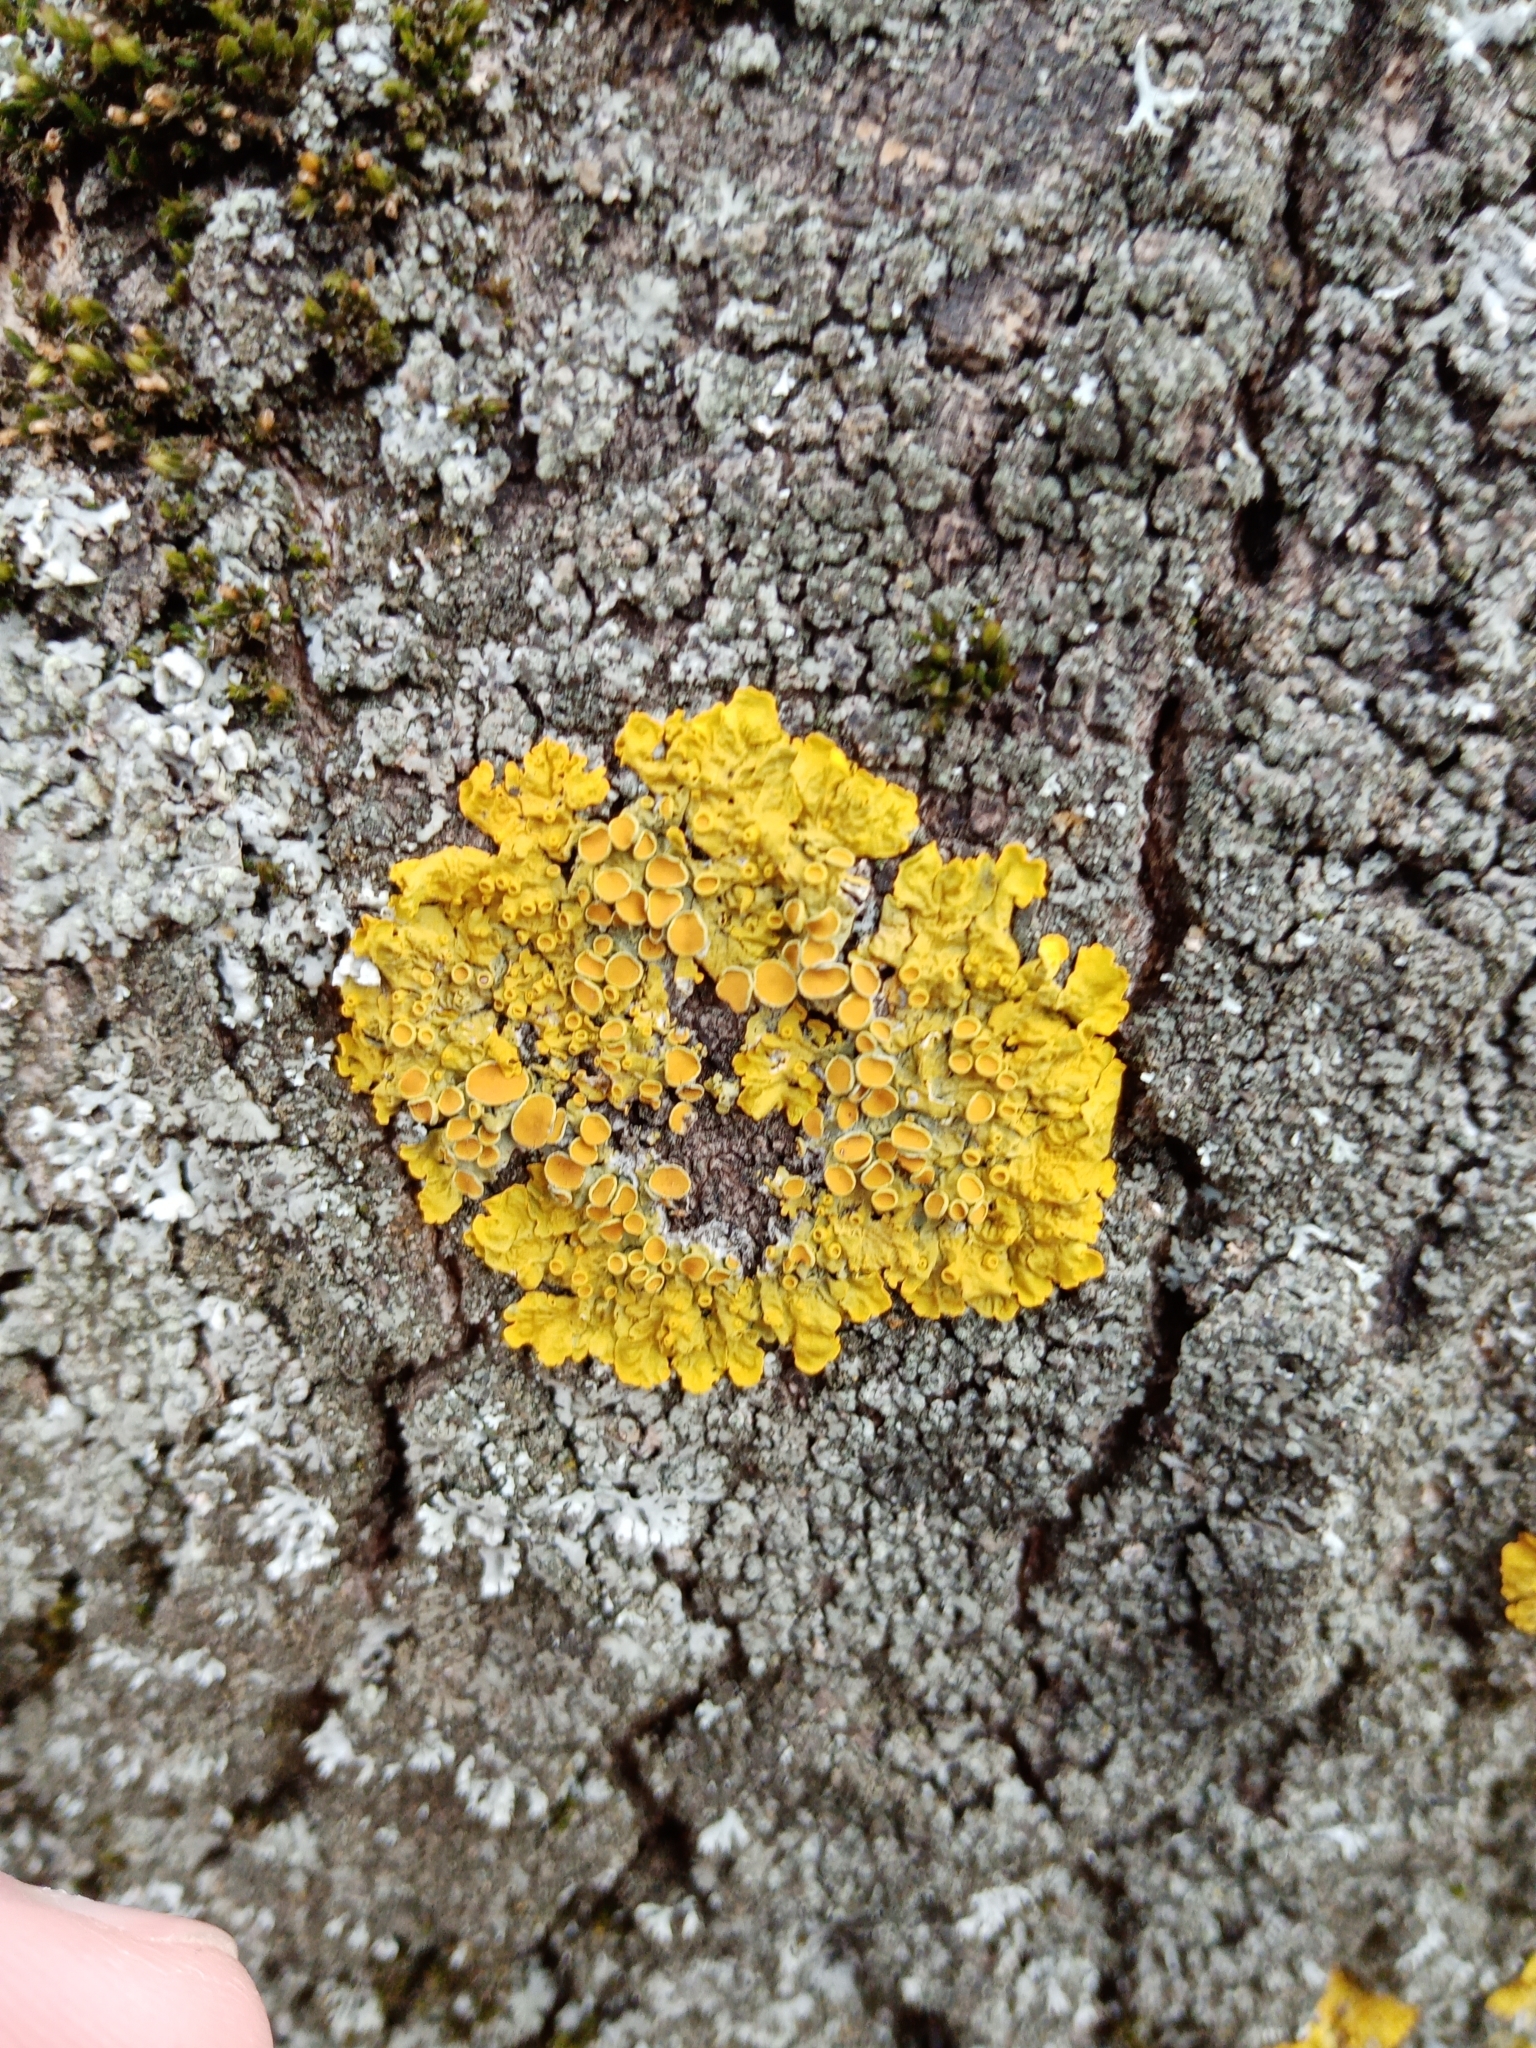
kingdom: Fungi
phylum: Ascomycota
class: Lecanoromycetes
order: Teloschistales
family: Teloschistaceae
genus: Xanthoria
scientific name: Xanthoria parietina
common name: Common orange lichen
